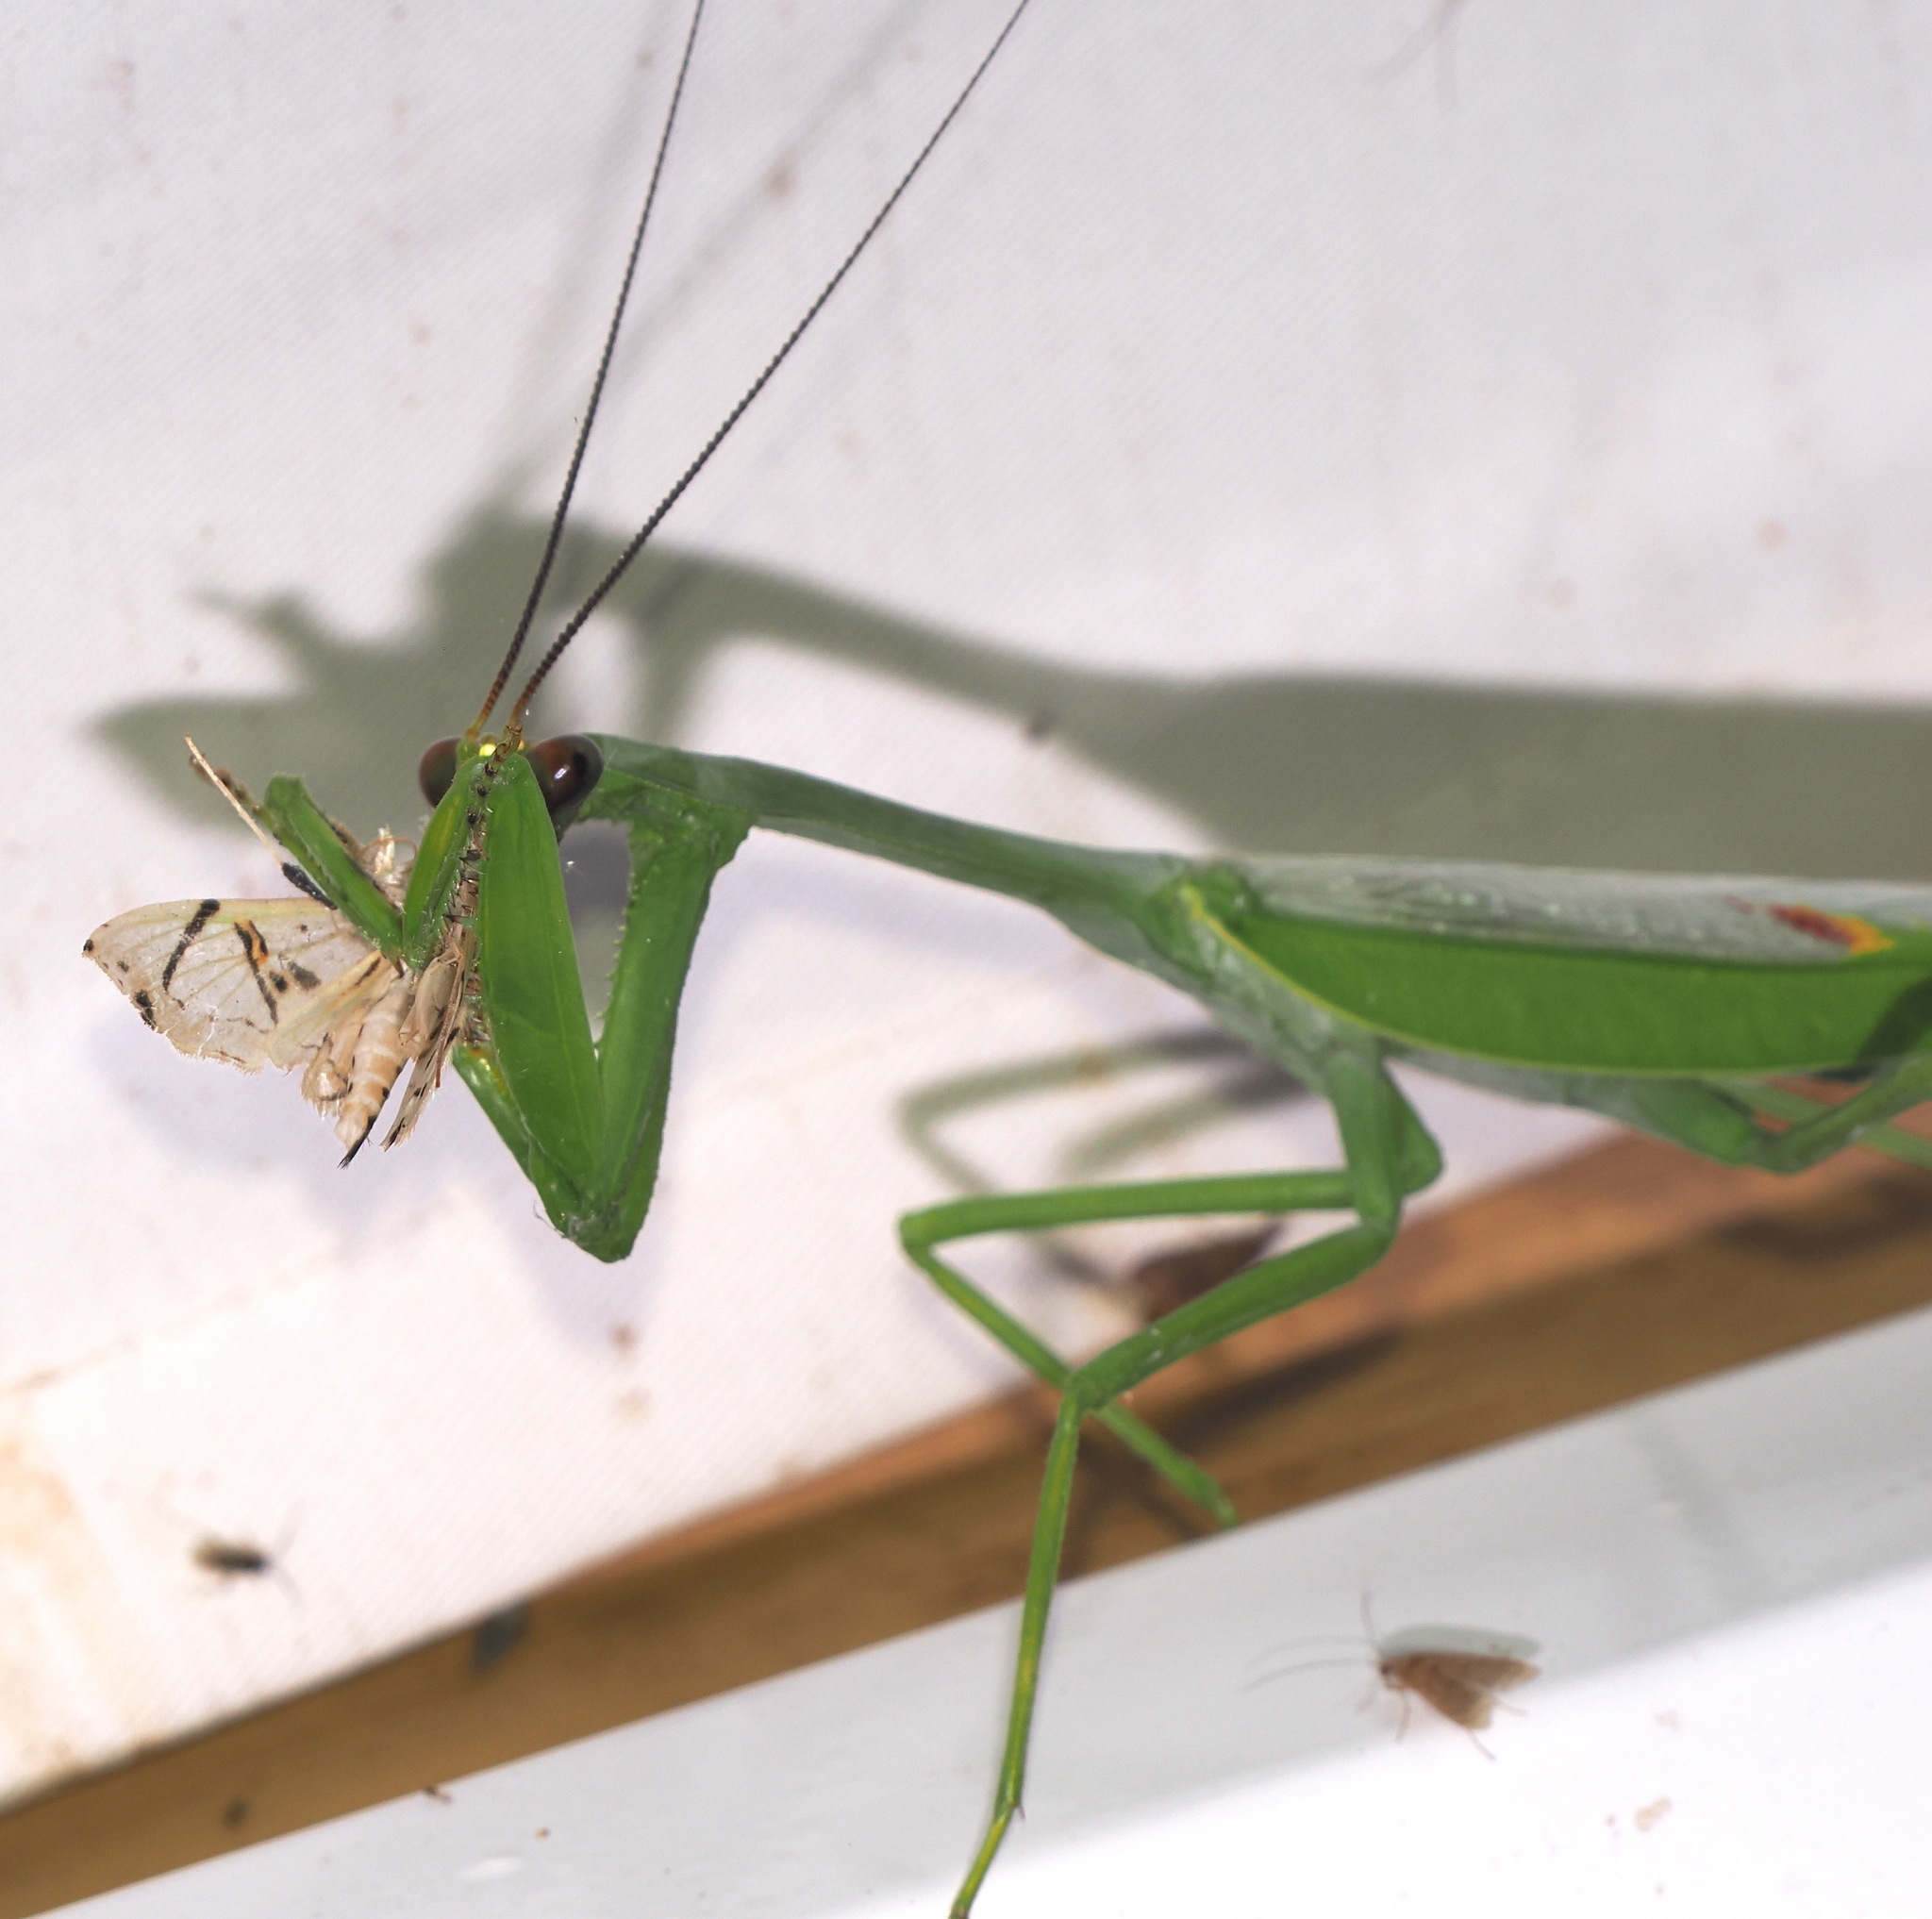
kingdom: Animalia
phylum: Arthropoda
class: Insecta
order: Mantodea
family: Mantidae
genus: Stagmatoptera
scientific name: Stagmatoptera septentrionalis
